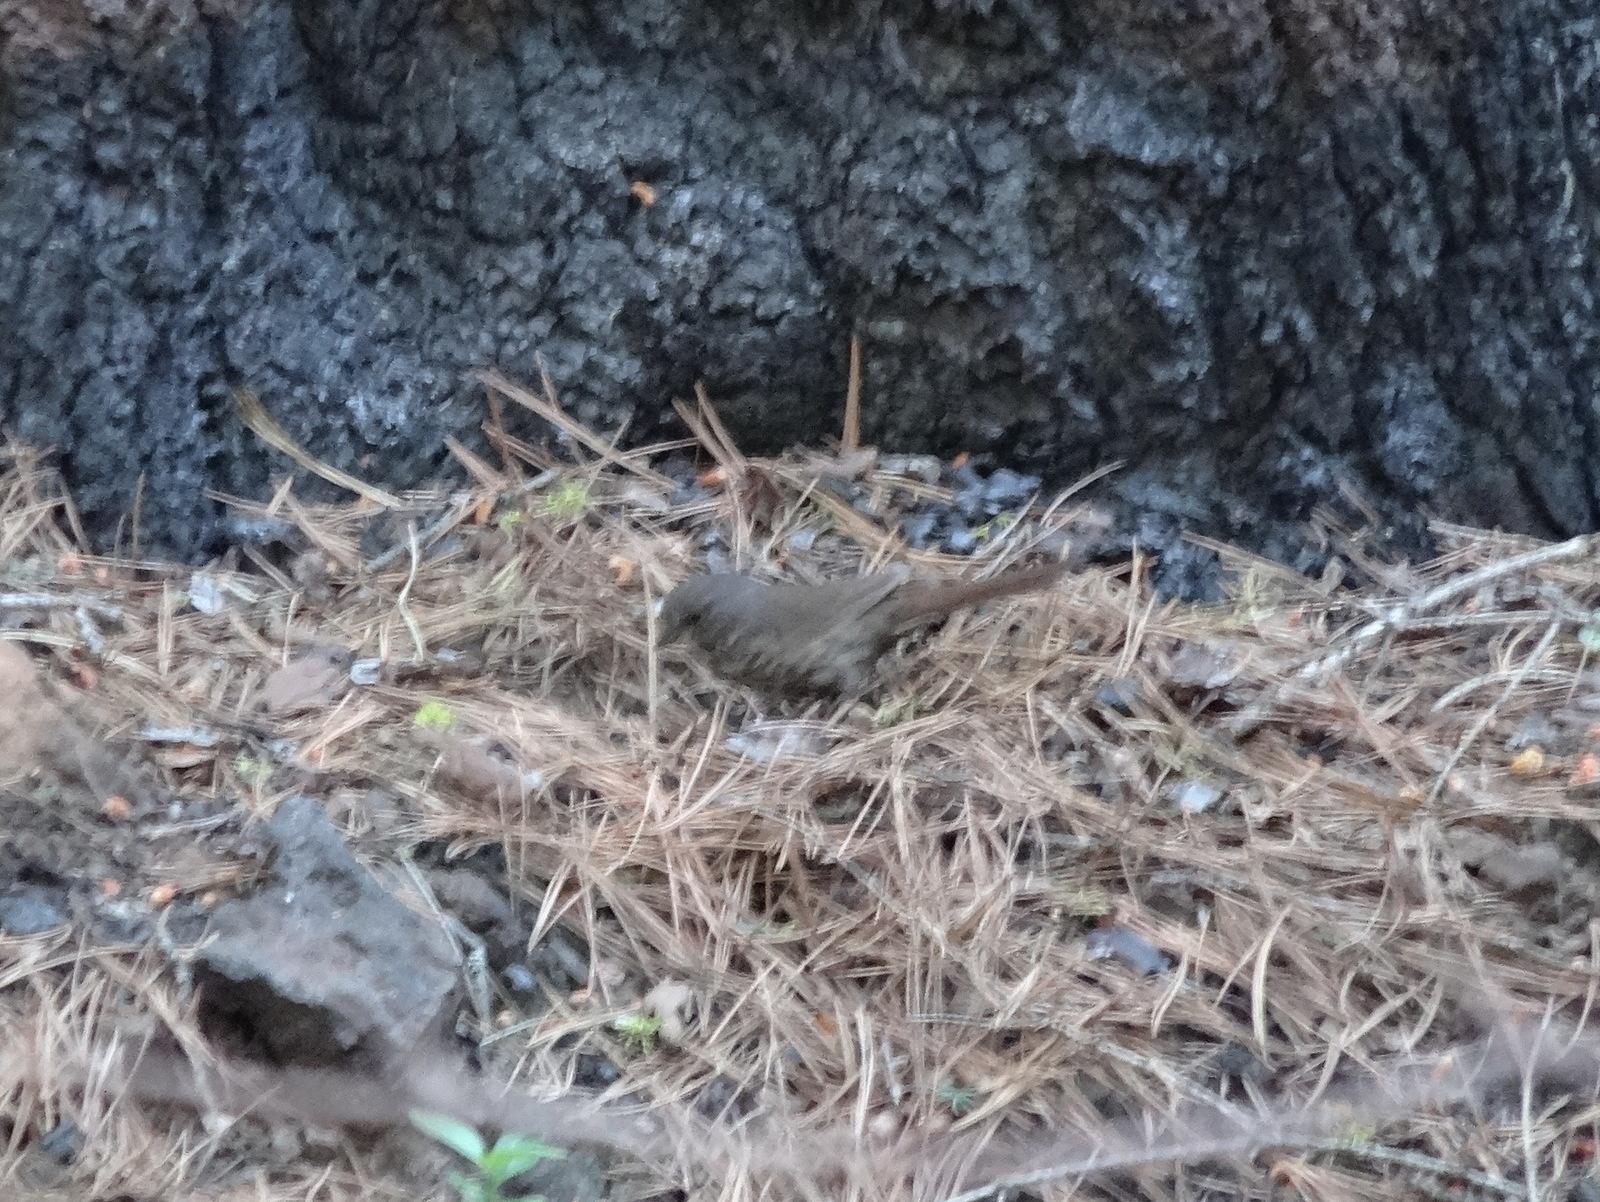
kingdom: Animalia
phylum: Chordata
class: Aves
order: Passeriformes
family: Passerellidae
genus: Passerella
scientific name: Passerella iliaca
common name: Fox sparrow
